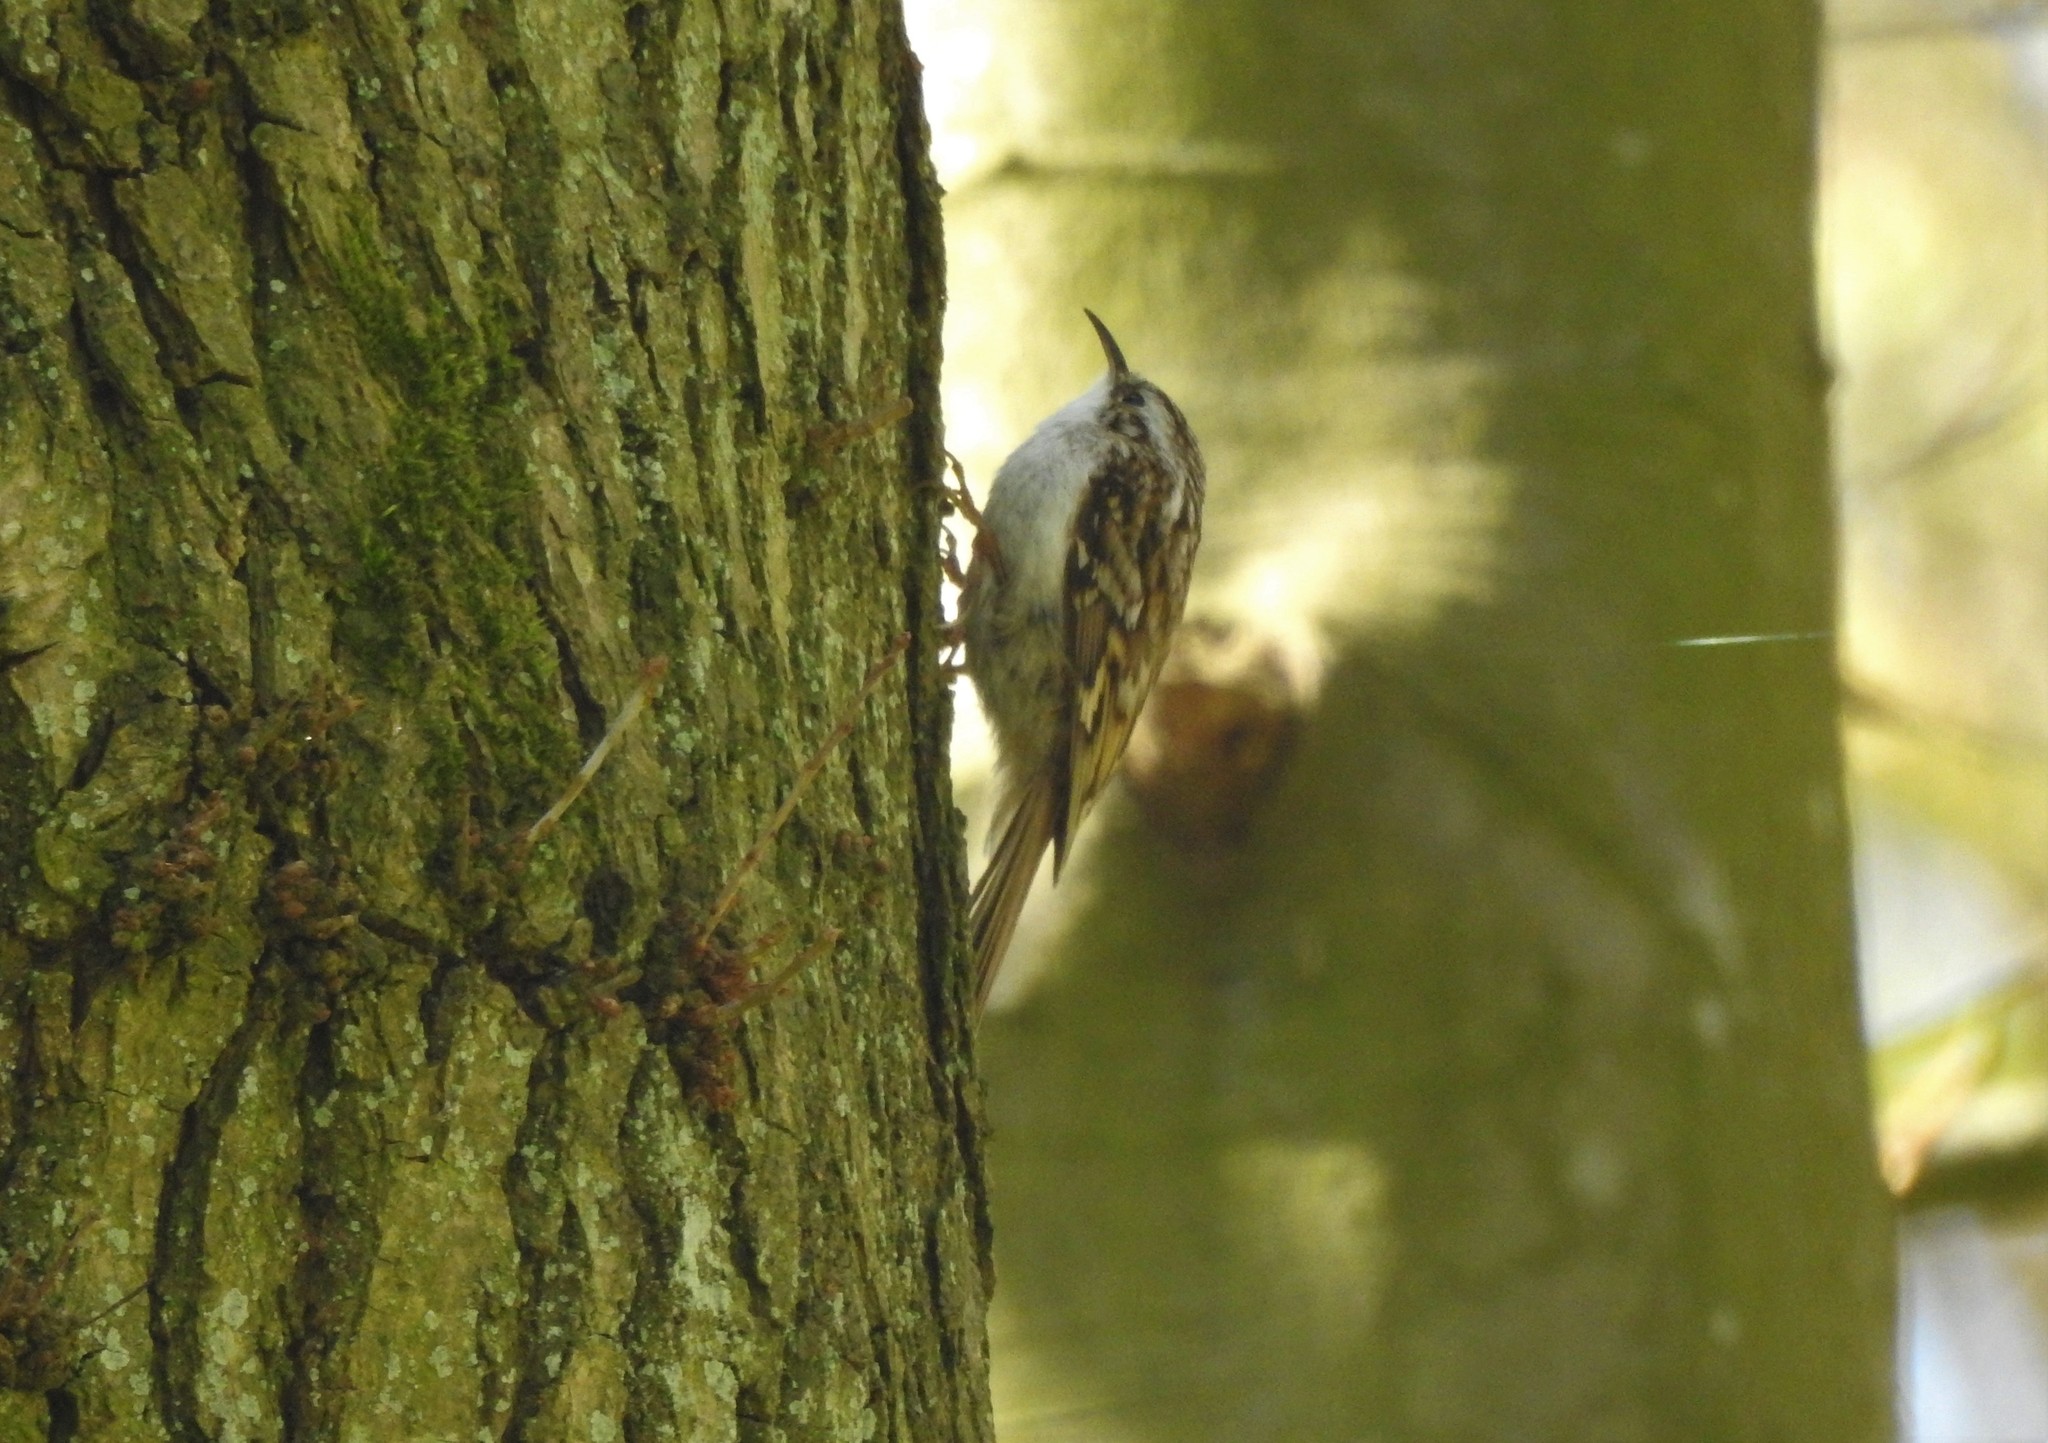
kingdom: Animalia
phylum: Chordata
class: Aves
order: Passeriformes
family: Certhiidae
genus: Certhia
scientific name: Certhia familiaris
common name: Eurasian treecreeper
